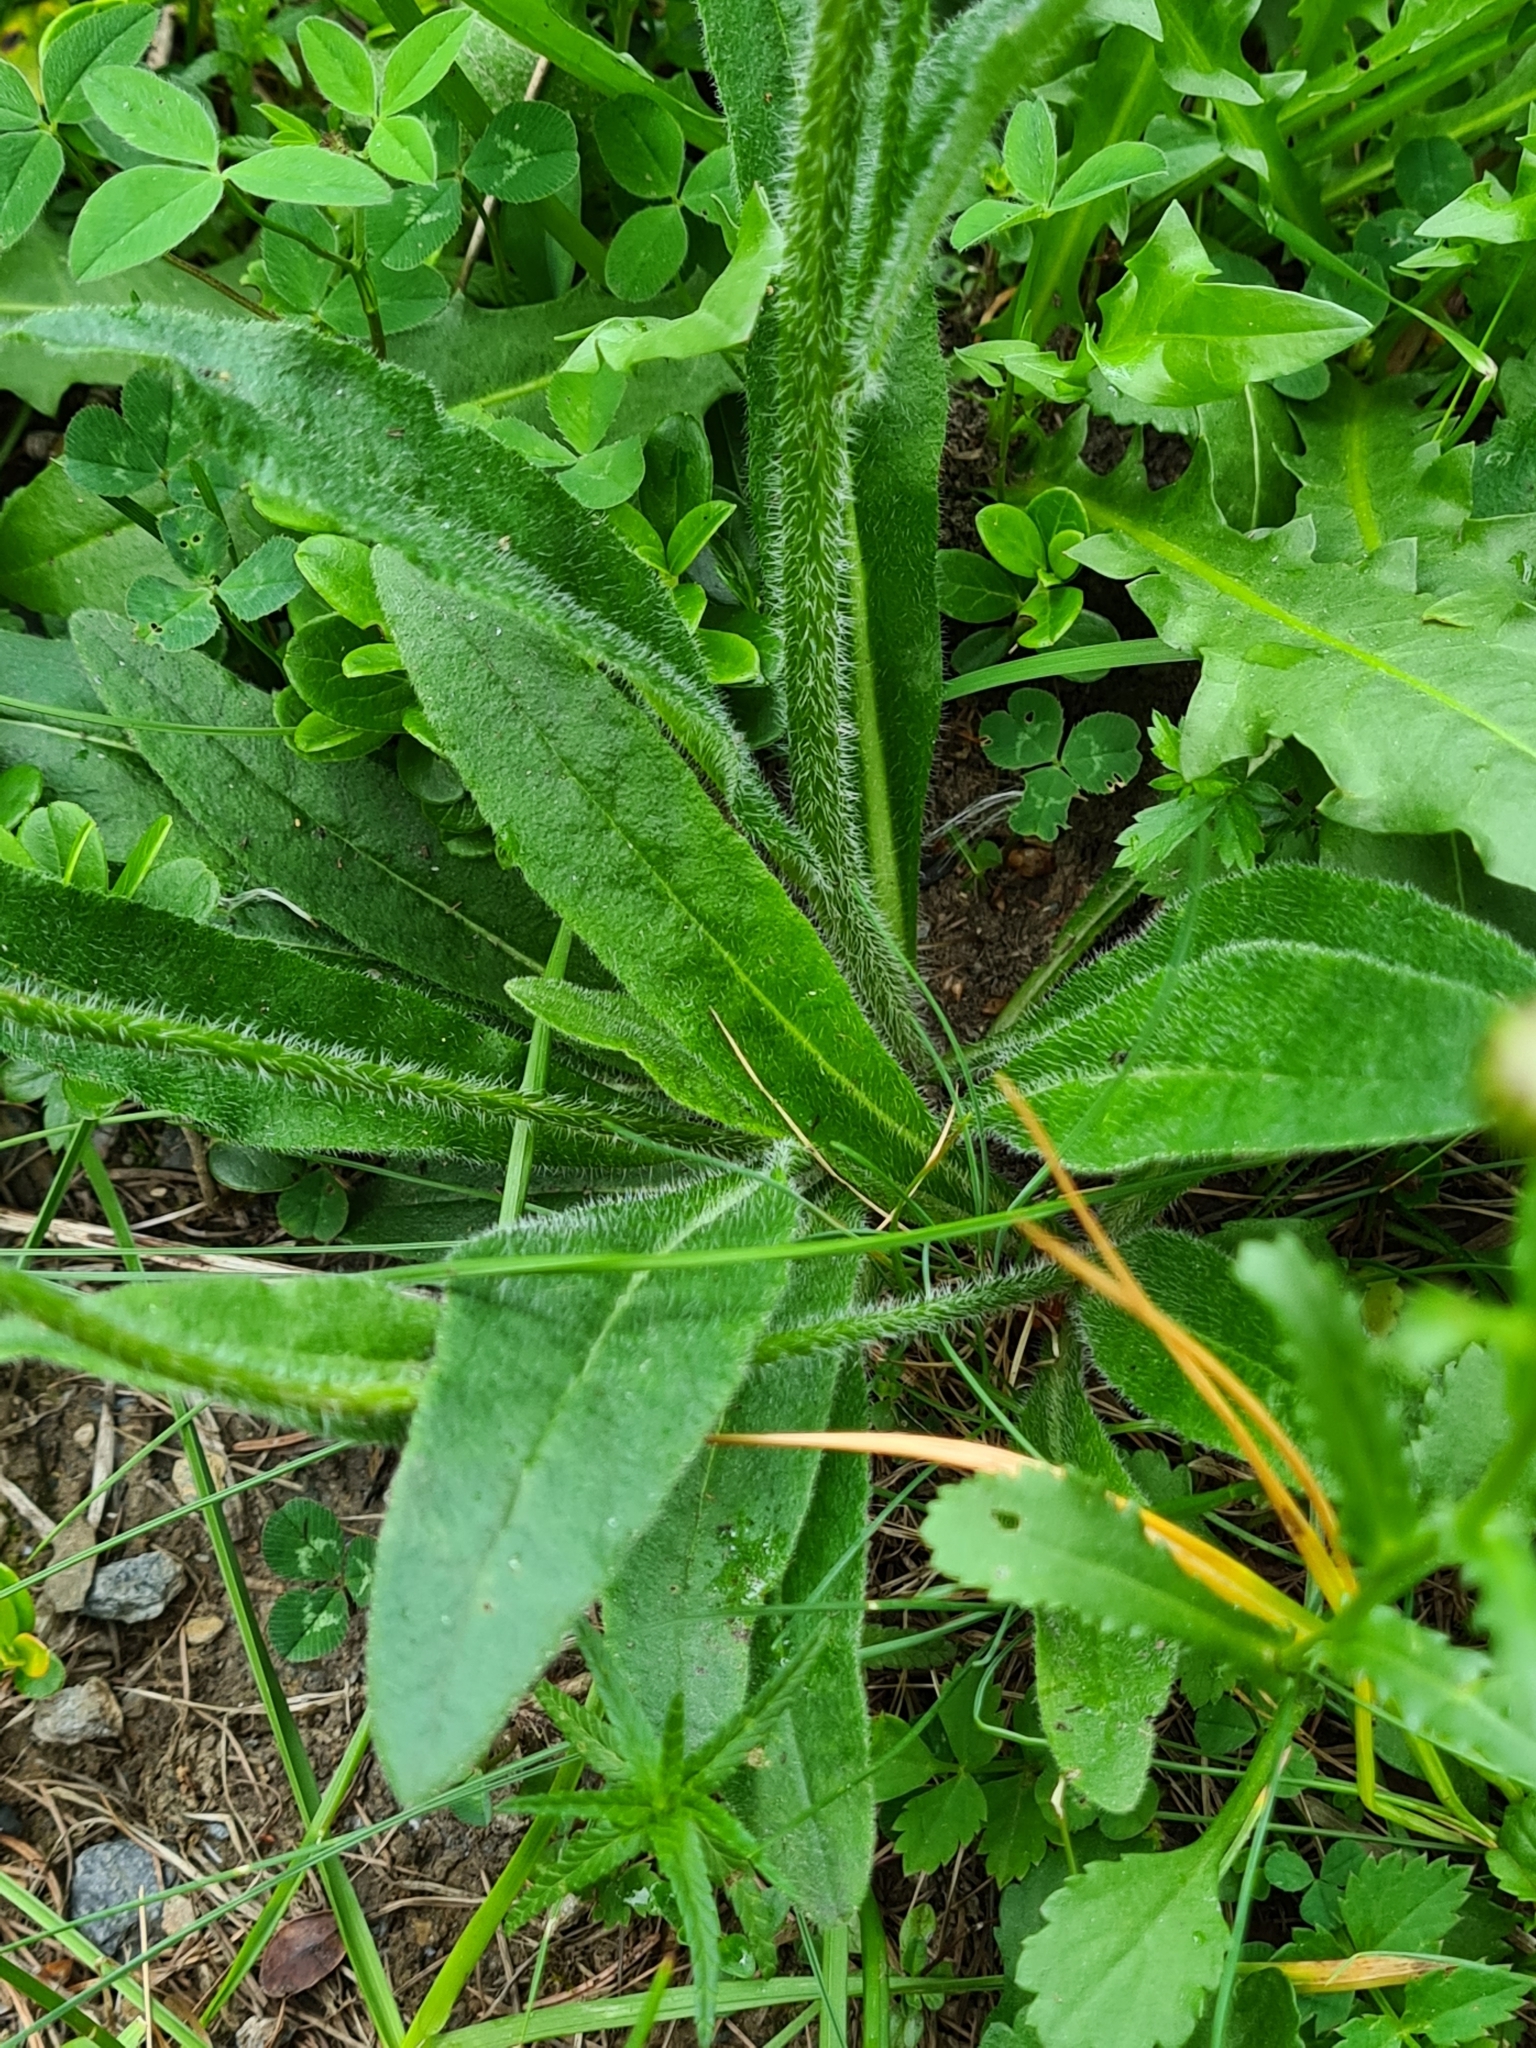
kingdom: Plantae
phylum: Tracheophyta
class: Magnoliopsida
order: Asterales
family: Campanulaceae
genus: Campanula
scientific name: Campanula barbata
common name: Bearded bellflower
